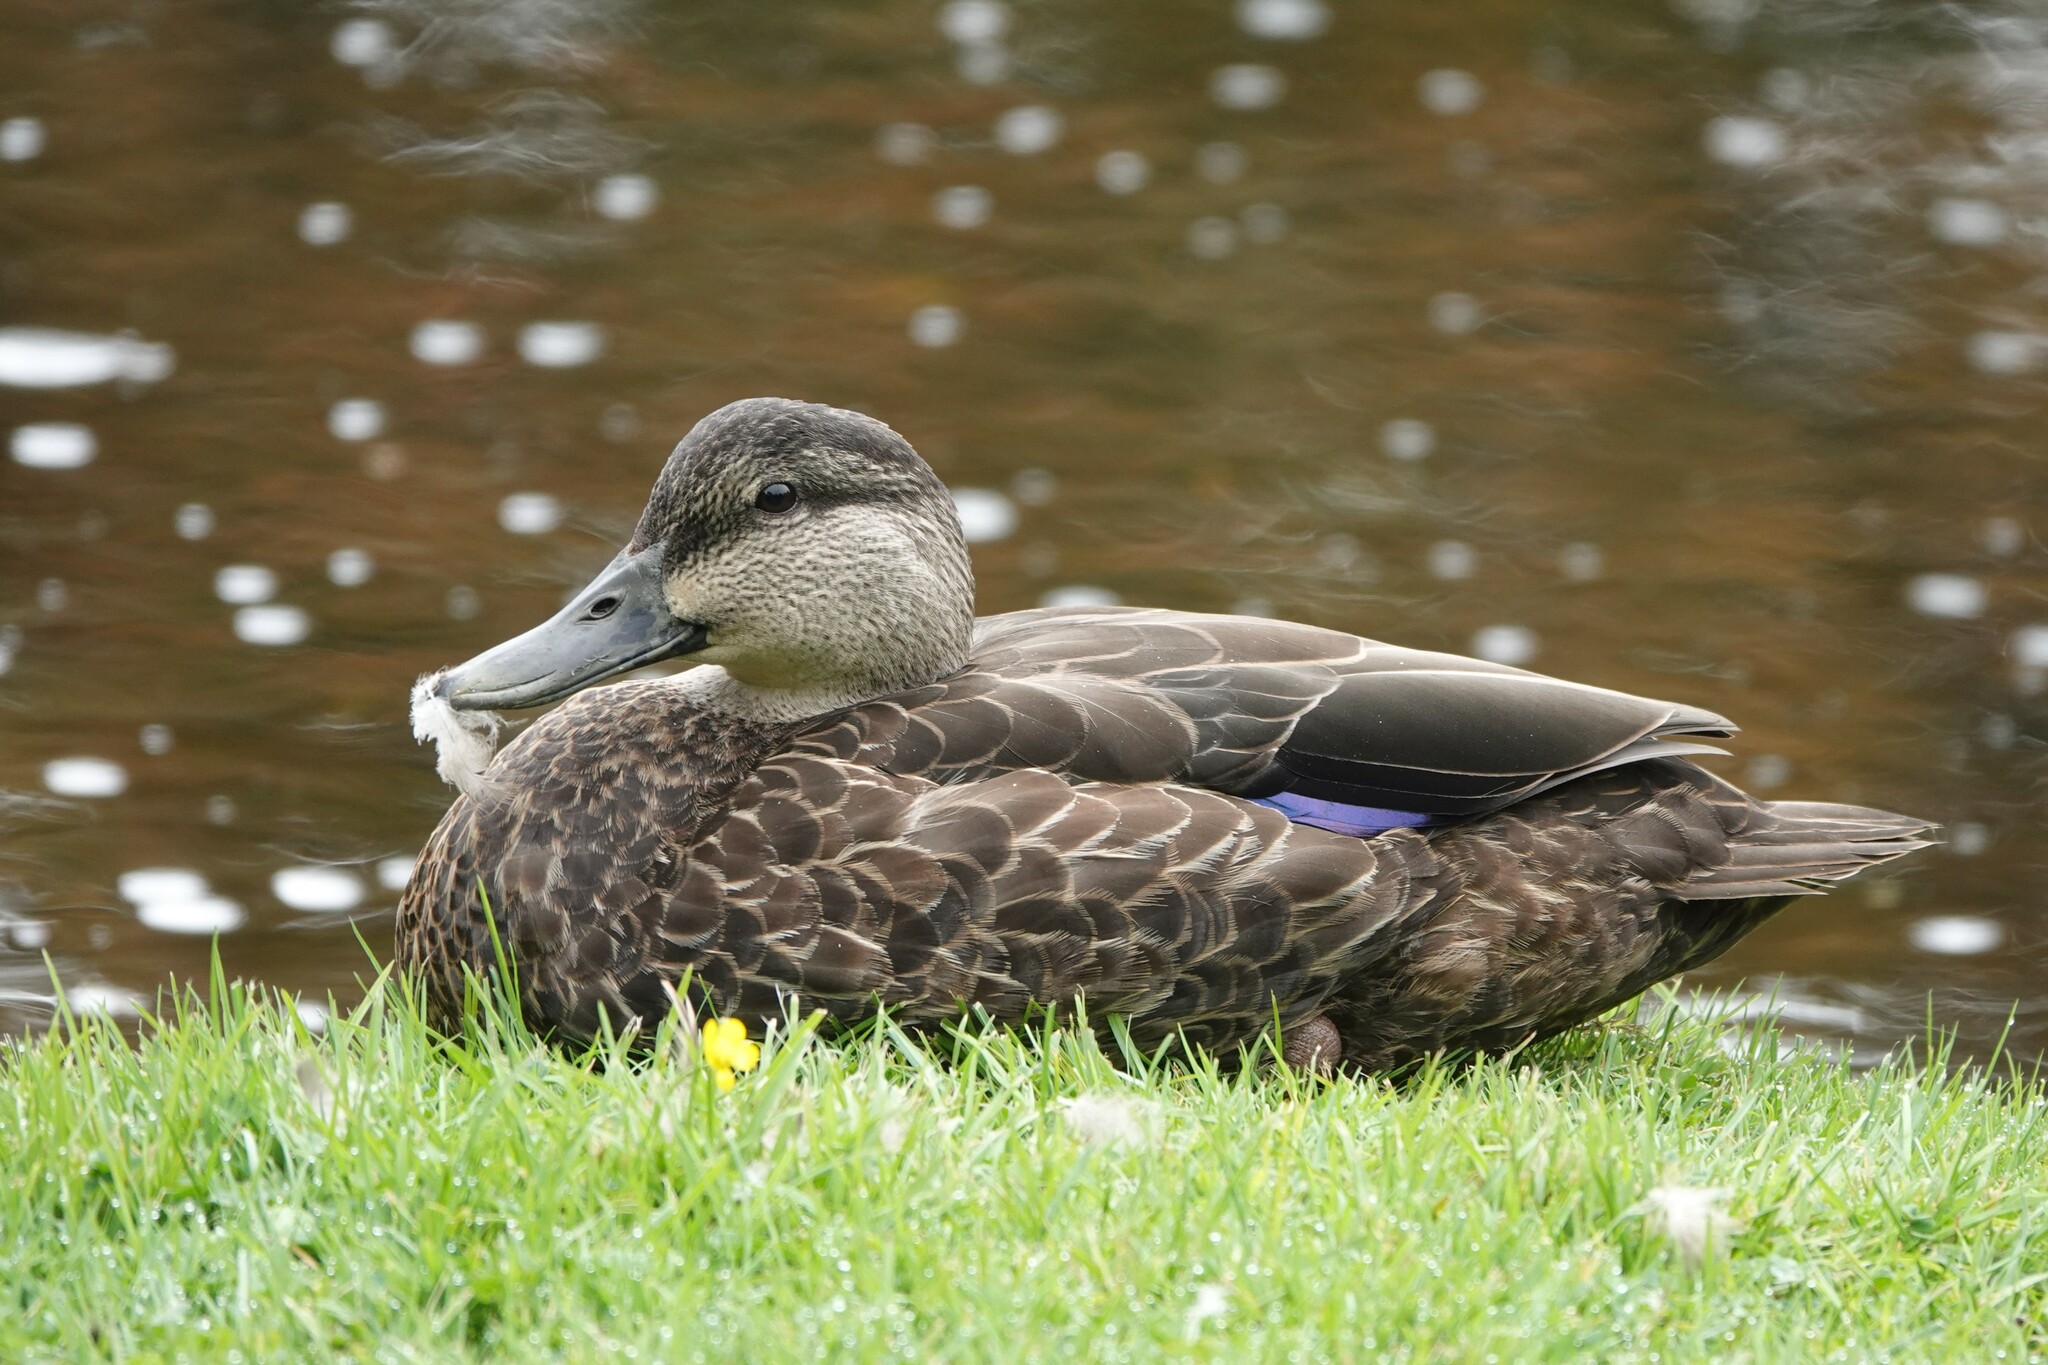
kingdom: Animalia
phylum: Chordata
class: Aves
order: Anseriformes
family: Anatidae
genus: Anas
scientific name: Anas rubripes
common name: American black duck
